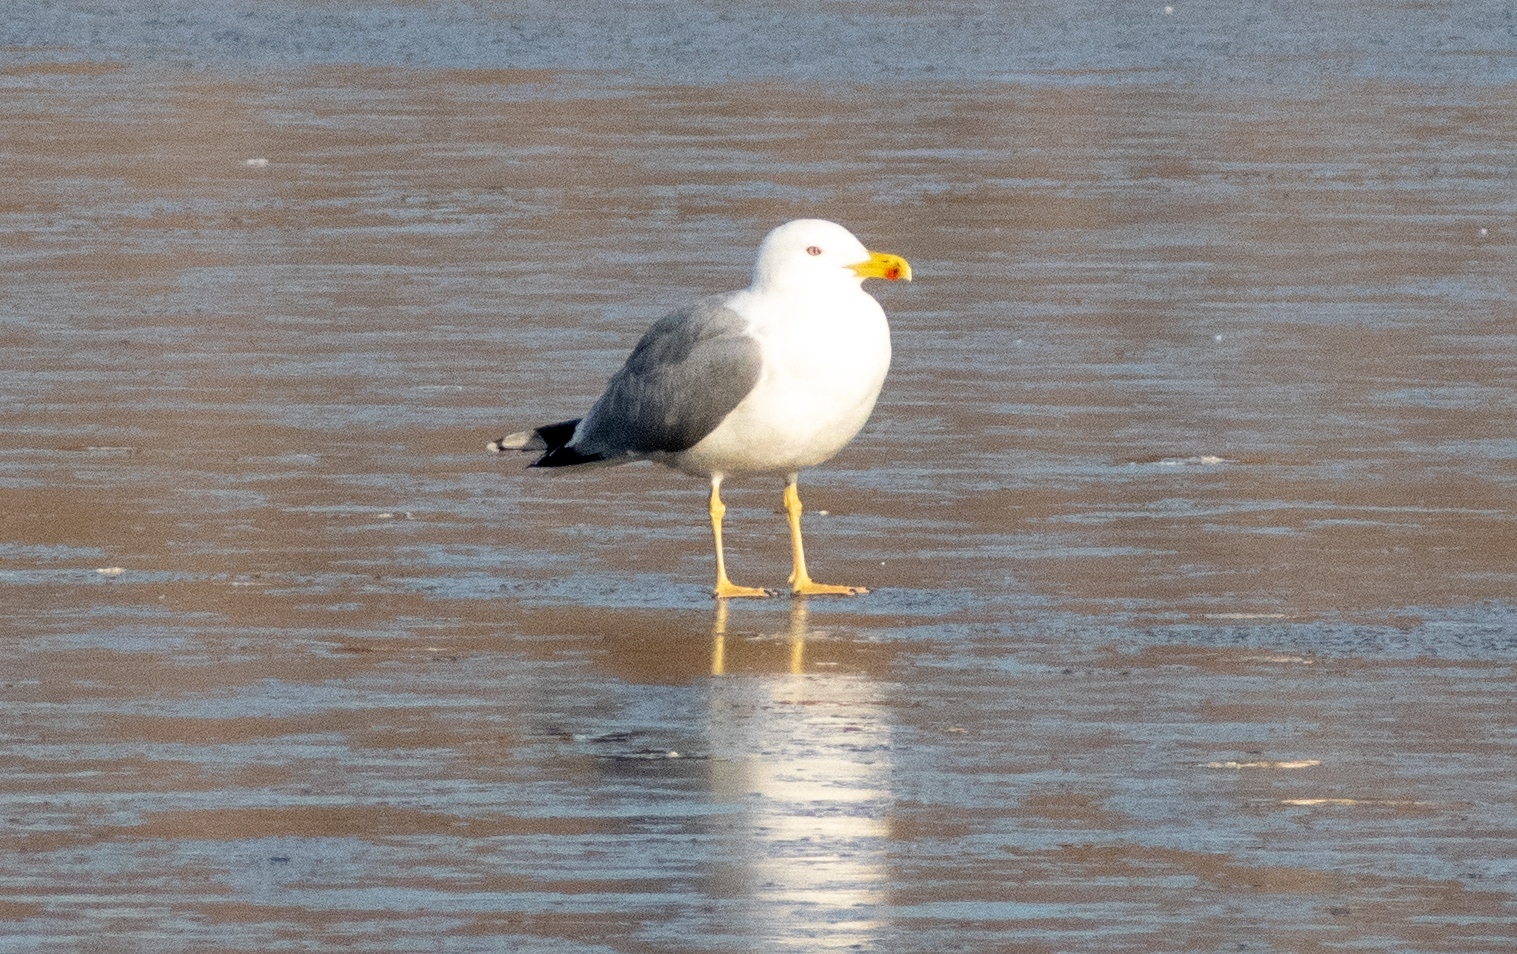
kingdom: Animalia
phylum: Chordata
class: Aves
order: Charadriiformes
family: Laridae
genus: Larus
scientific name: Larus michahellis
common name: Yellow-legged gull
